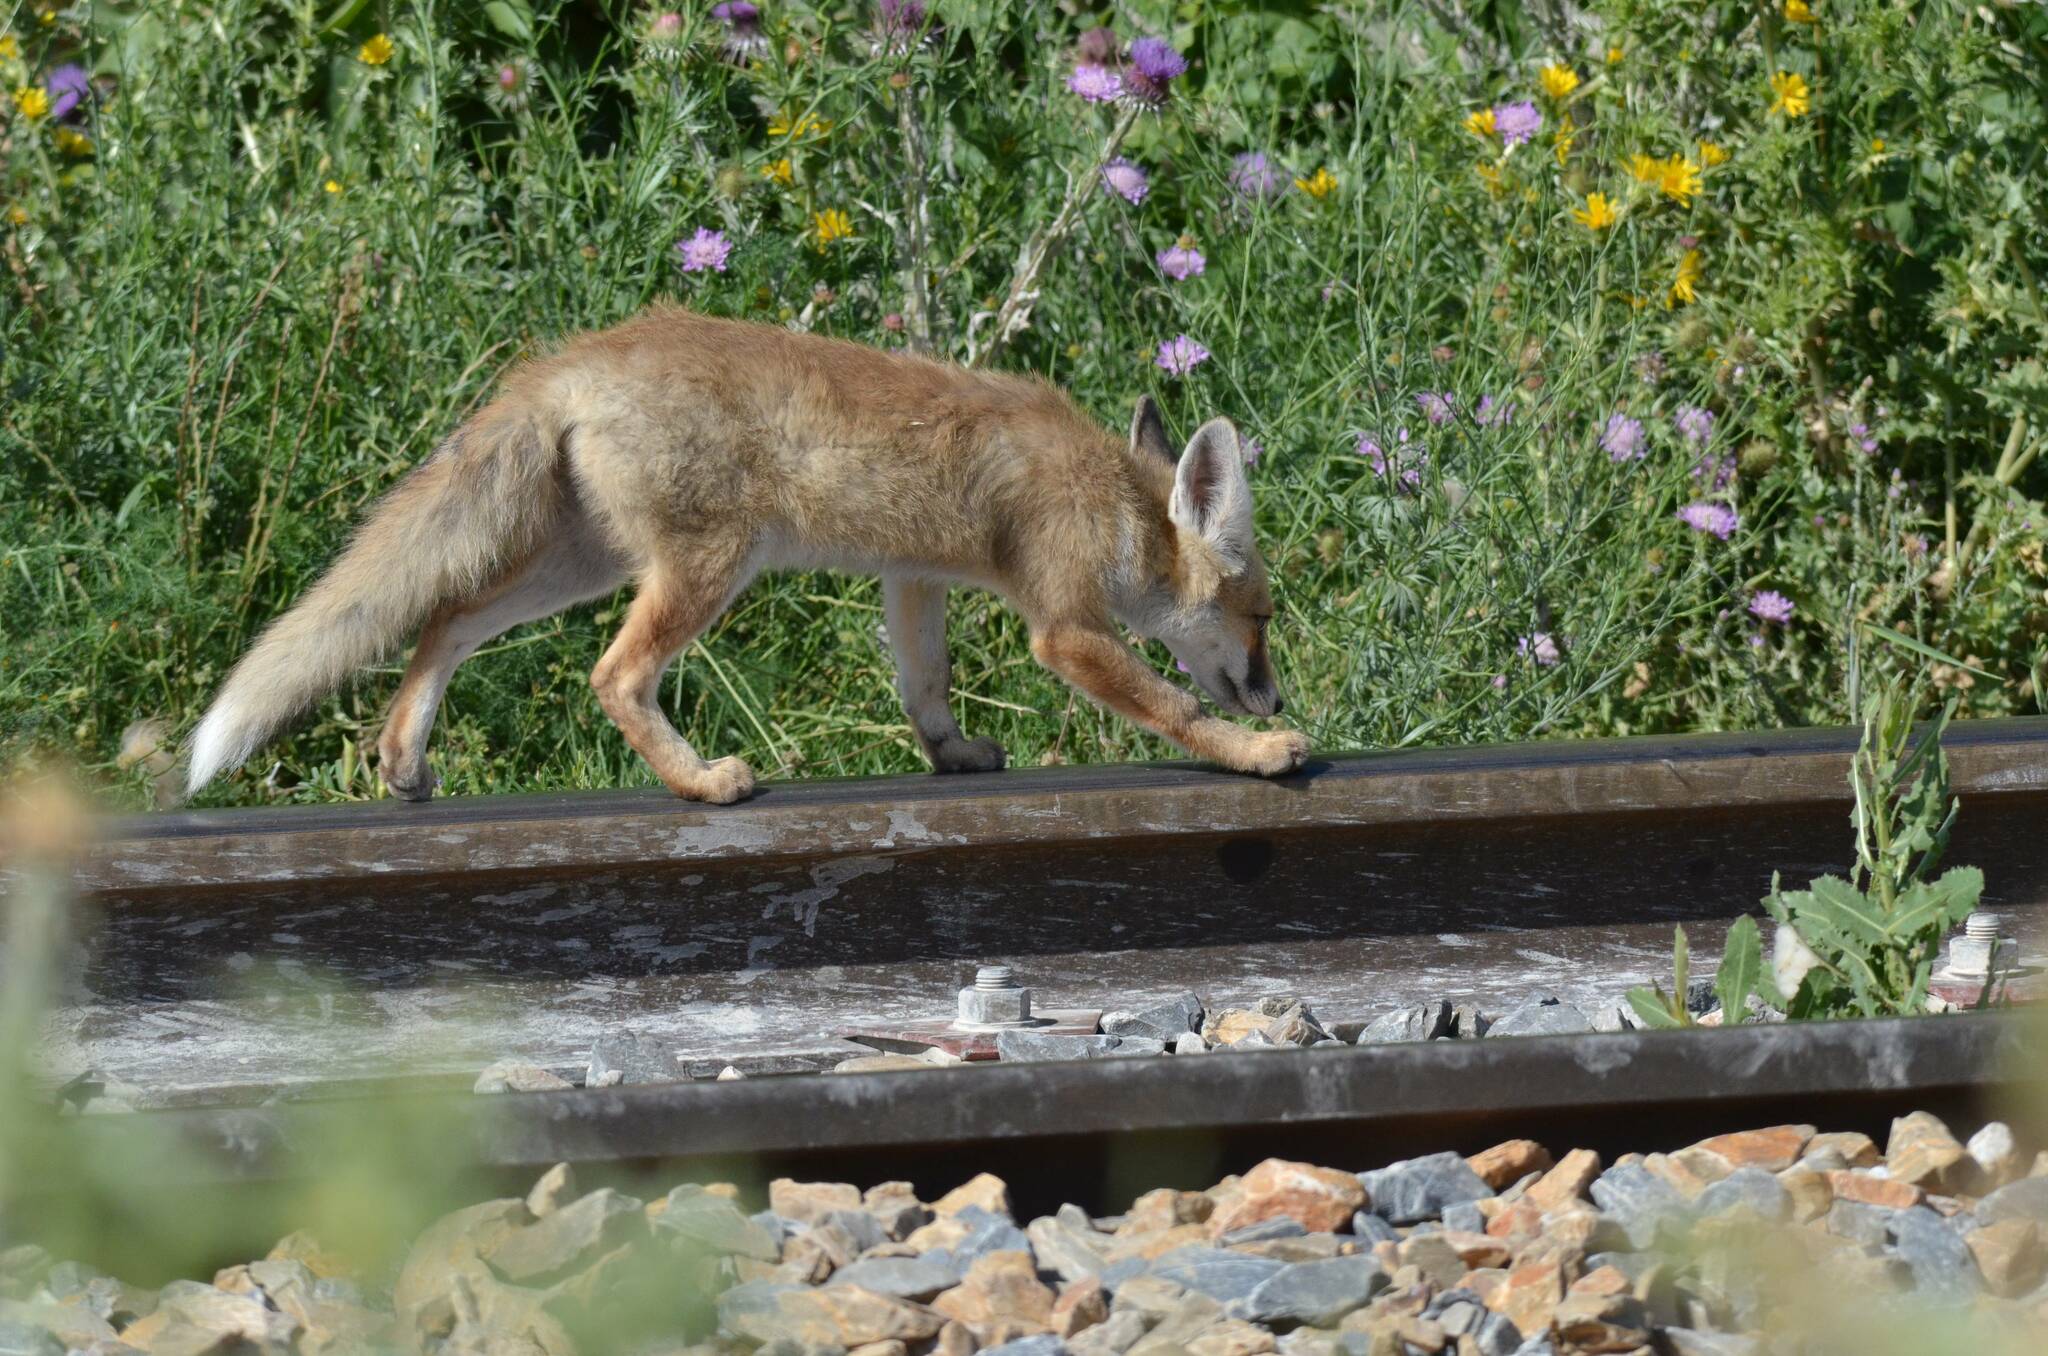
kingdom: Animalia
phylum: Chordata
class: Mammalia
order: Carnivora
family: Canidae
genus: Vulpes
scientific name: Vulpes vulpes
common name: Red fox
